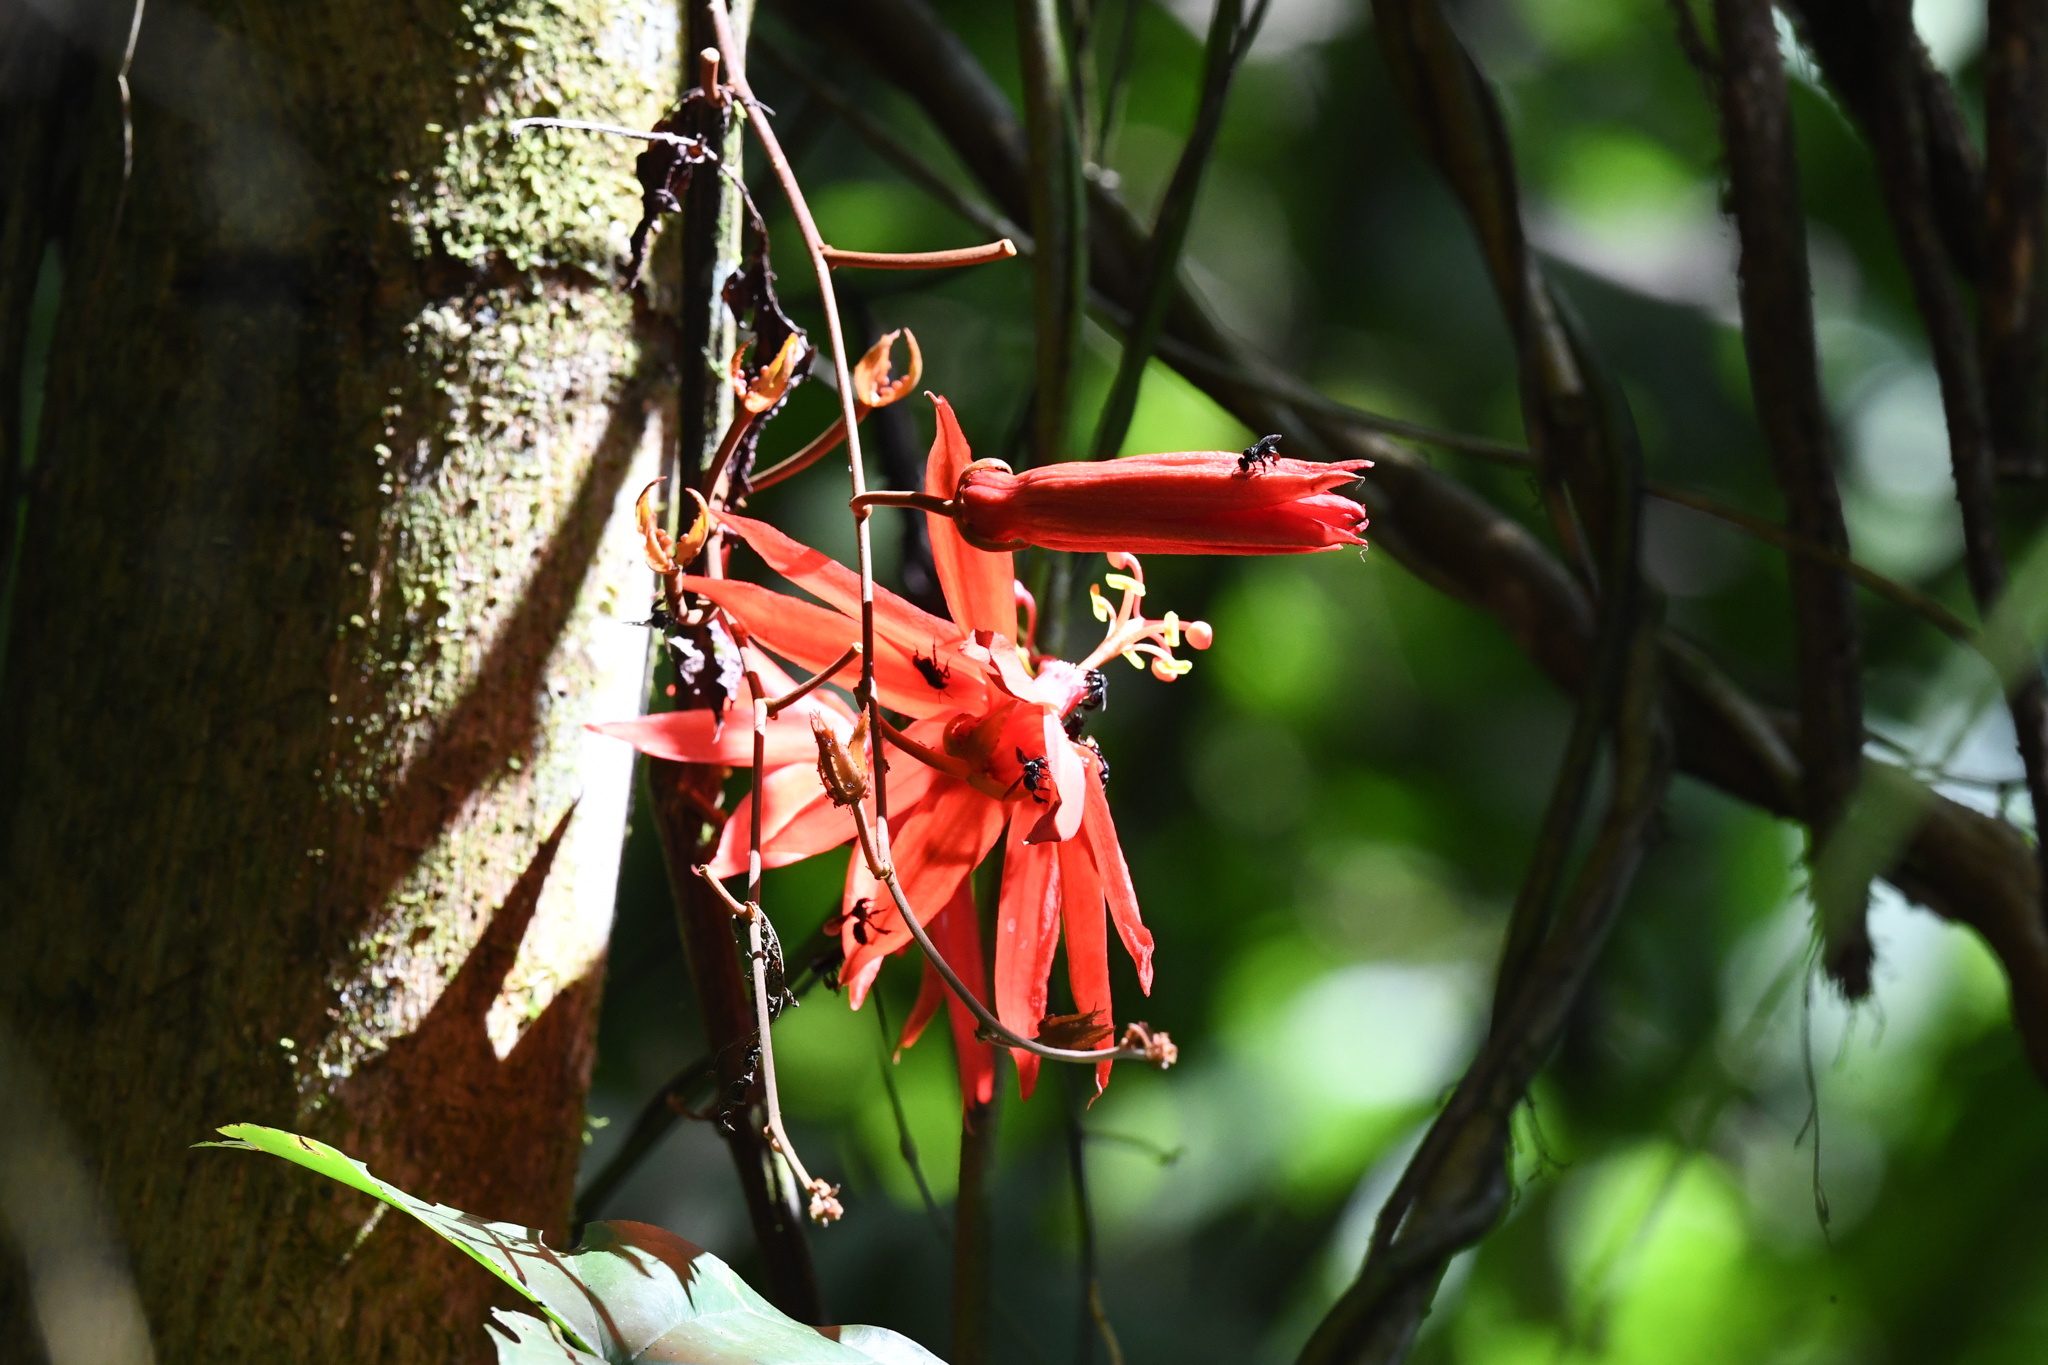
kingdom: Plantae
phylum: Tracheophyta
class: Magnoliopsida
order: Malpighiales
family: Passifloraceae
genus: Passiflora
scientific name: Passiflora vitifolia
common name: Perfumed passionflower
